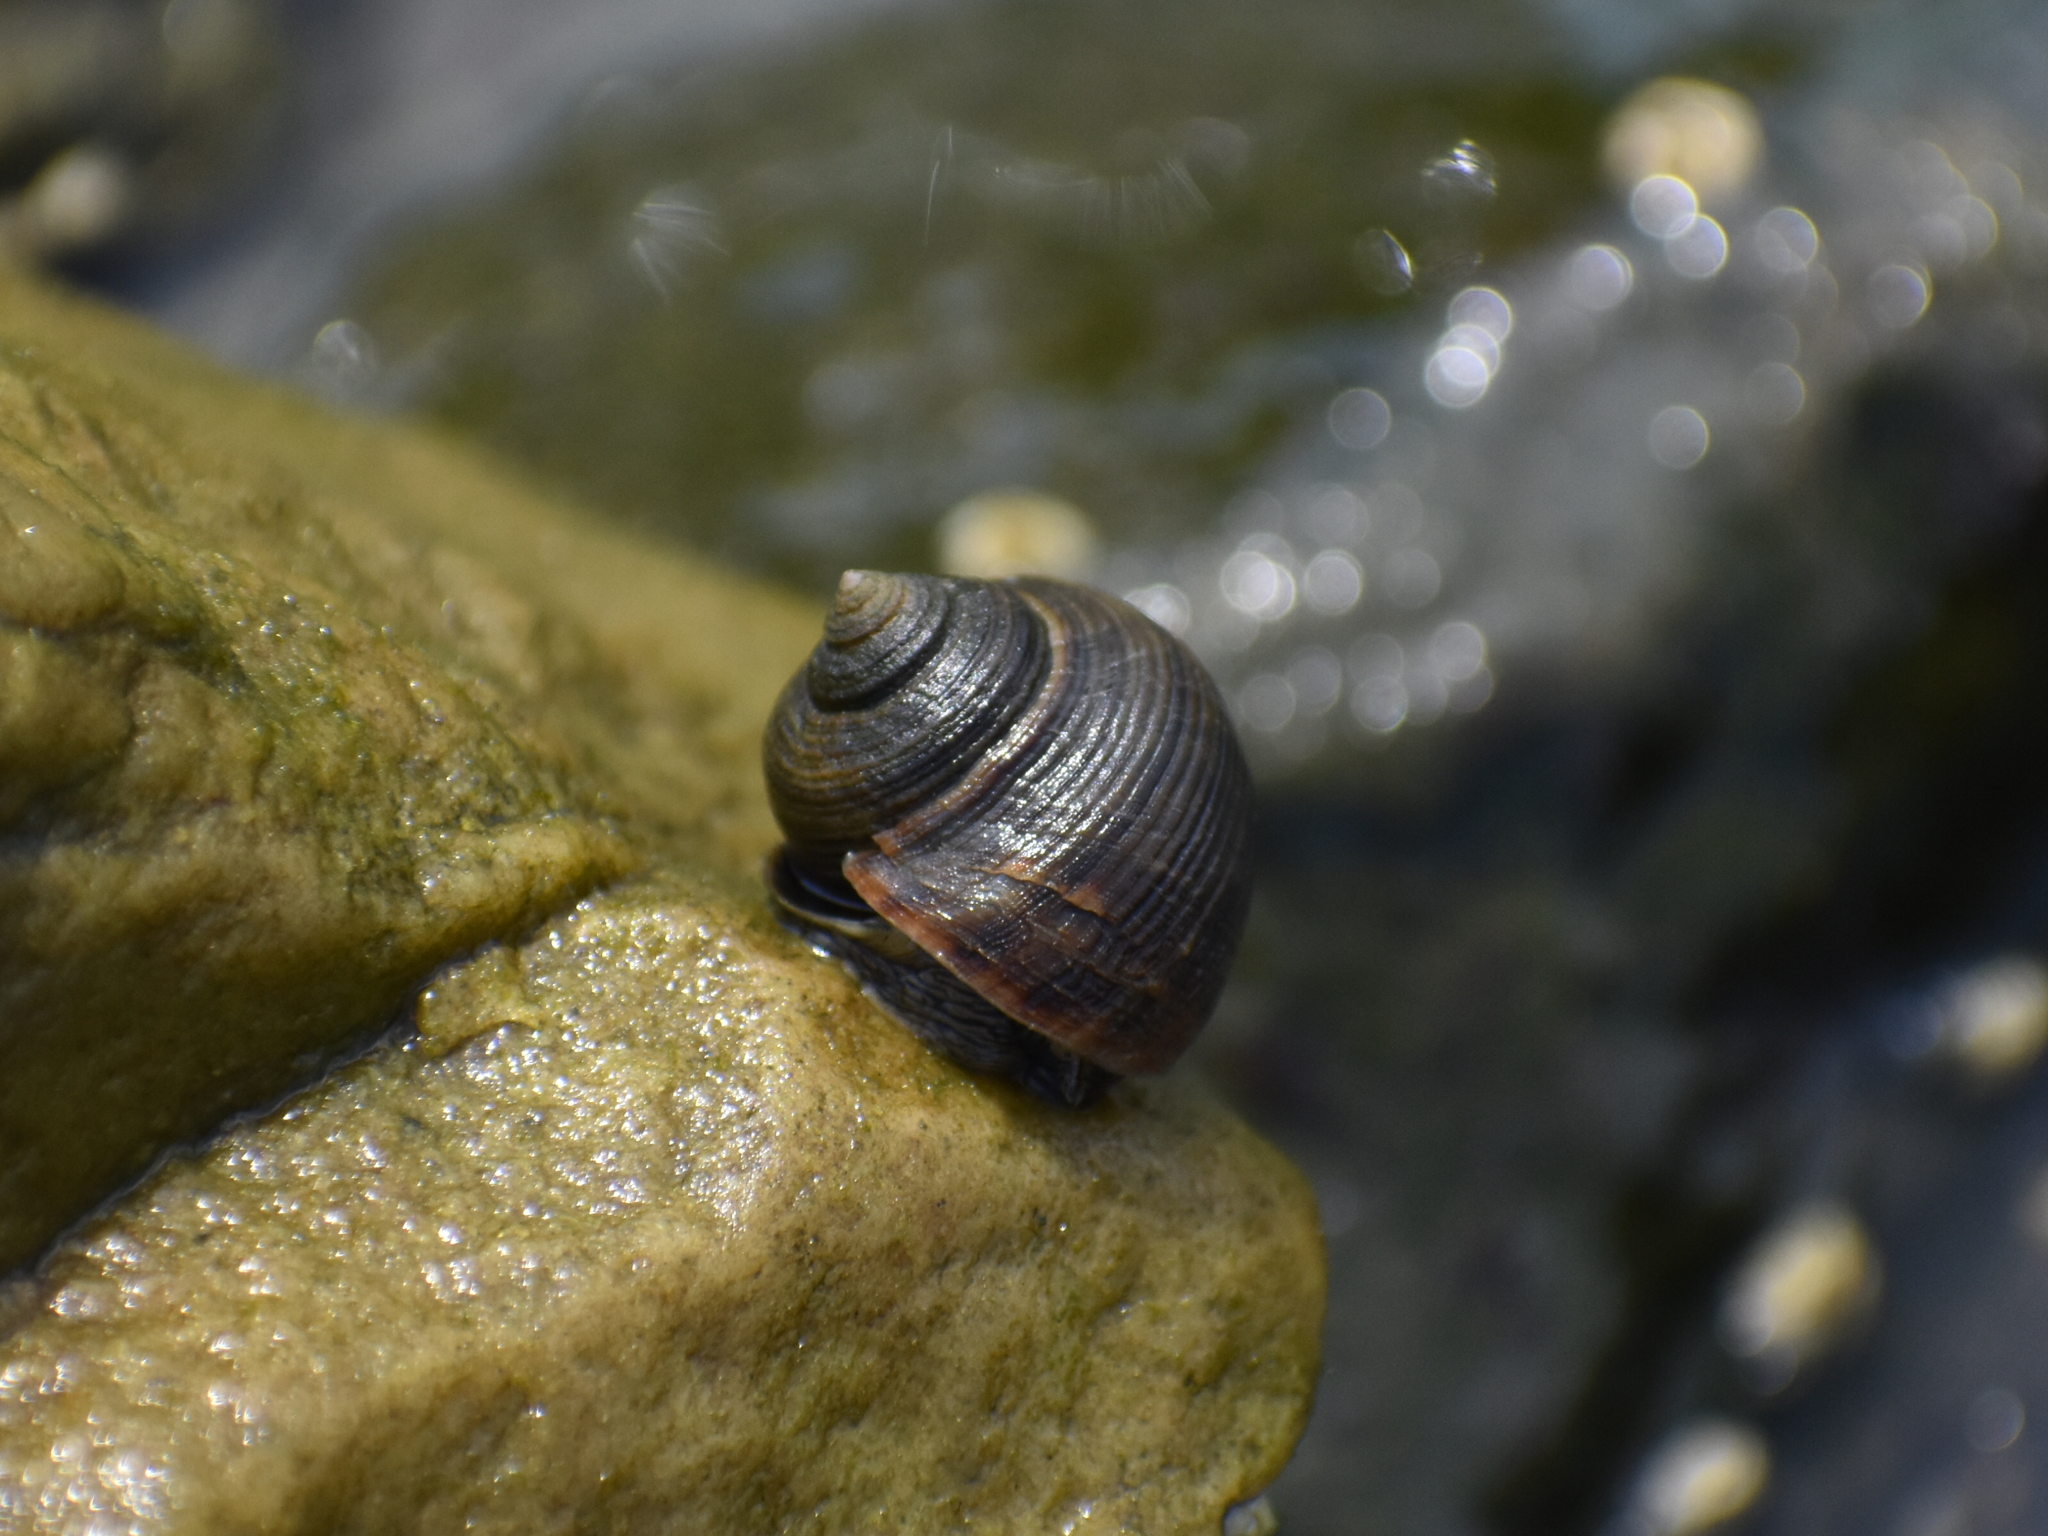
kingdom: Animalia
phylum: Mollusca
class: Gastropoda
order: Littorinimorpha
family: Littorinidae
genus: Littorina
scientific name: Littorina littorea
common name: Common periwinkle
